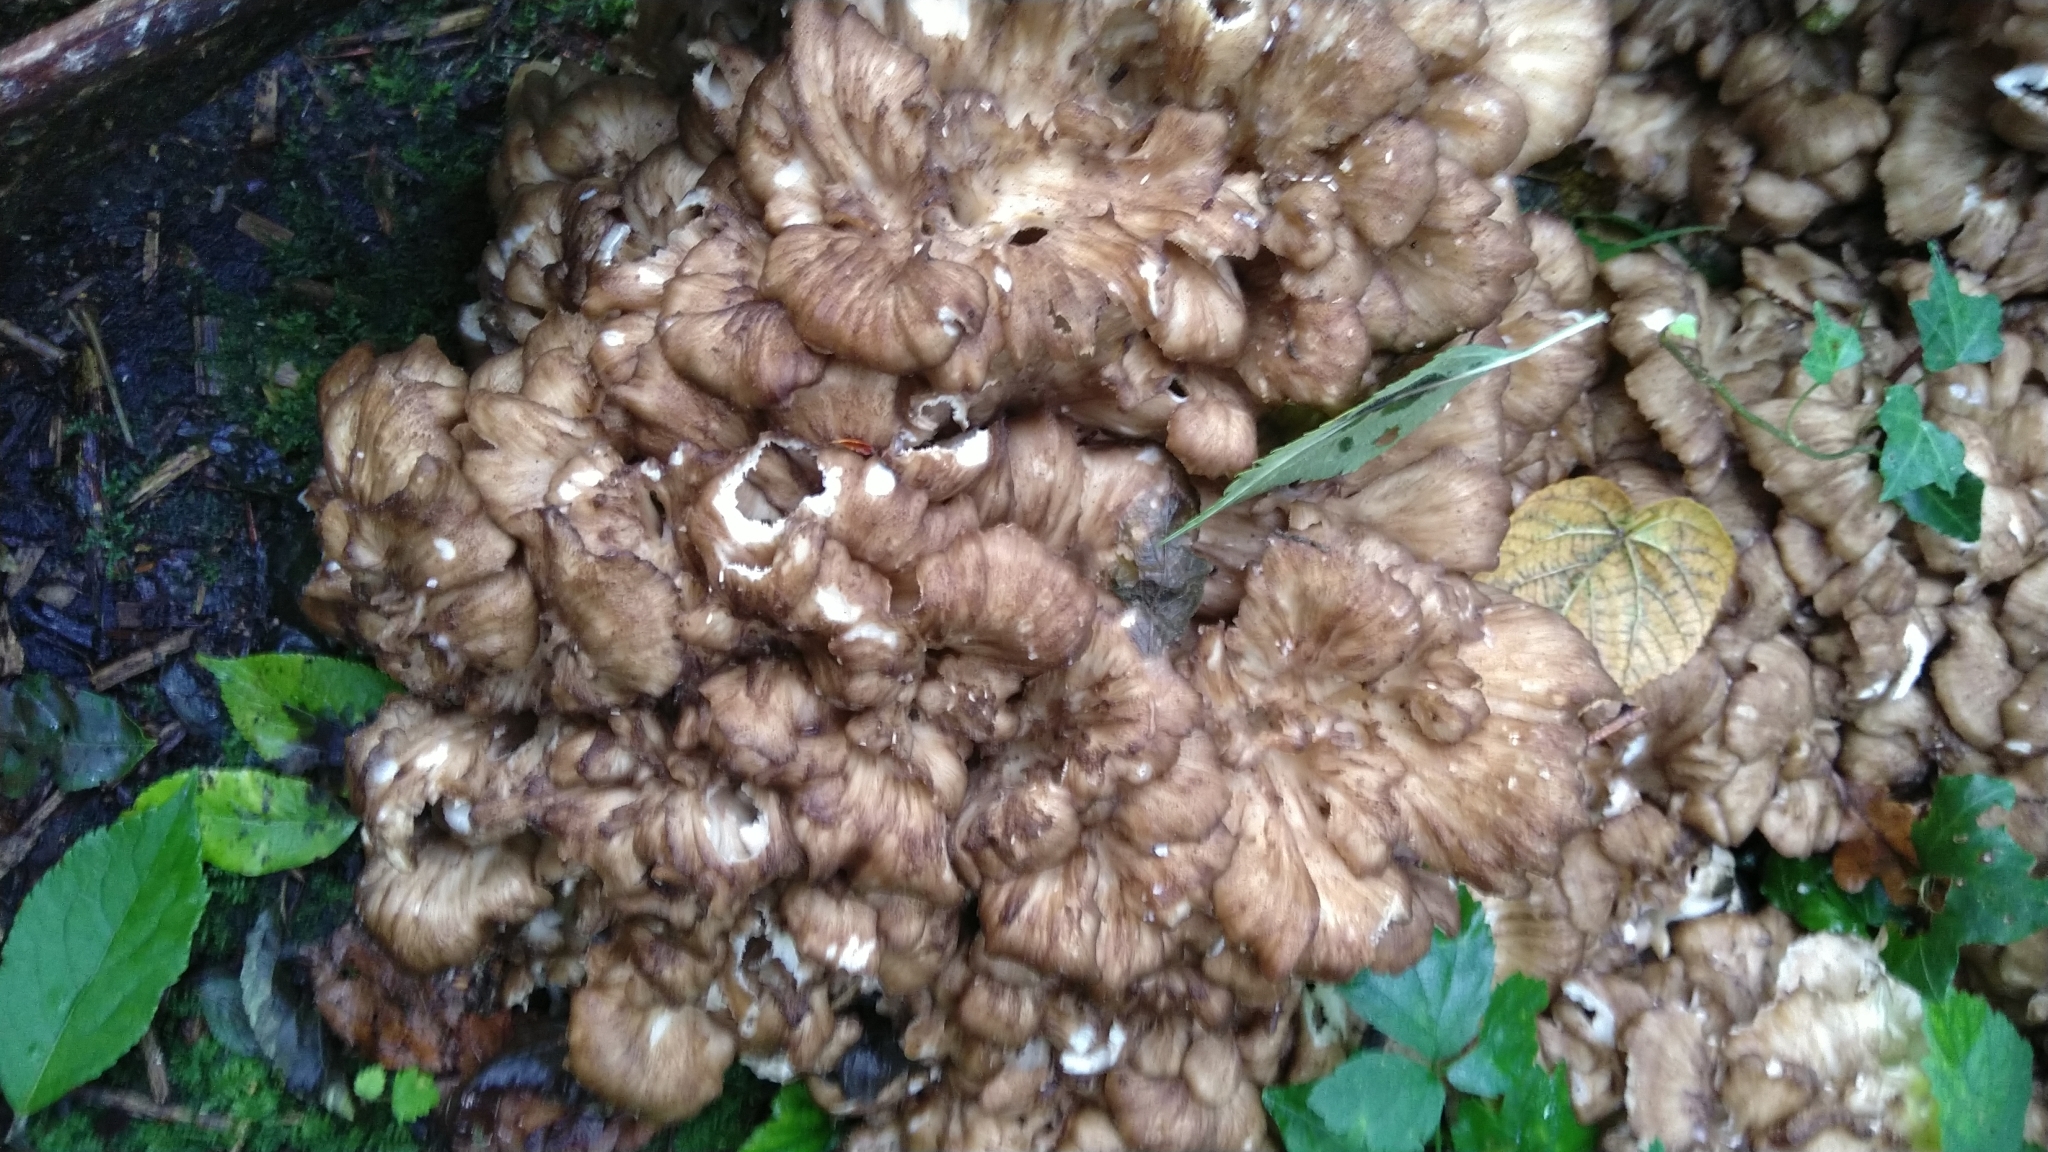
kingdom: Fungi
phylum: Basidiomycota
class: Agaricomycetes
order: Polyporales
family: Grifolaceae
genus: Grifola
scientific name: Grifola frondosa
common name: Hen of the woods
